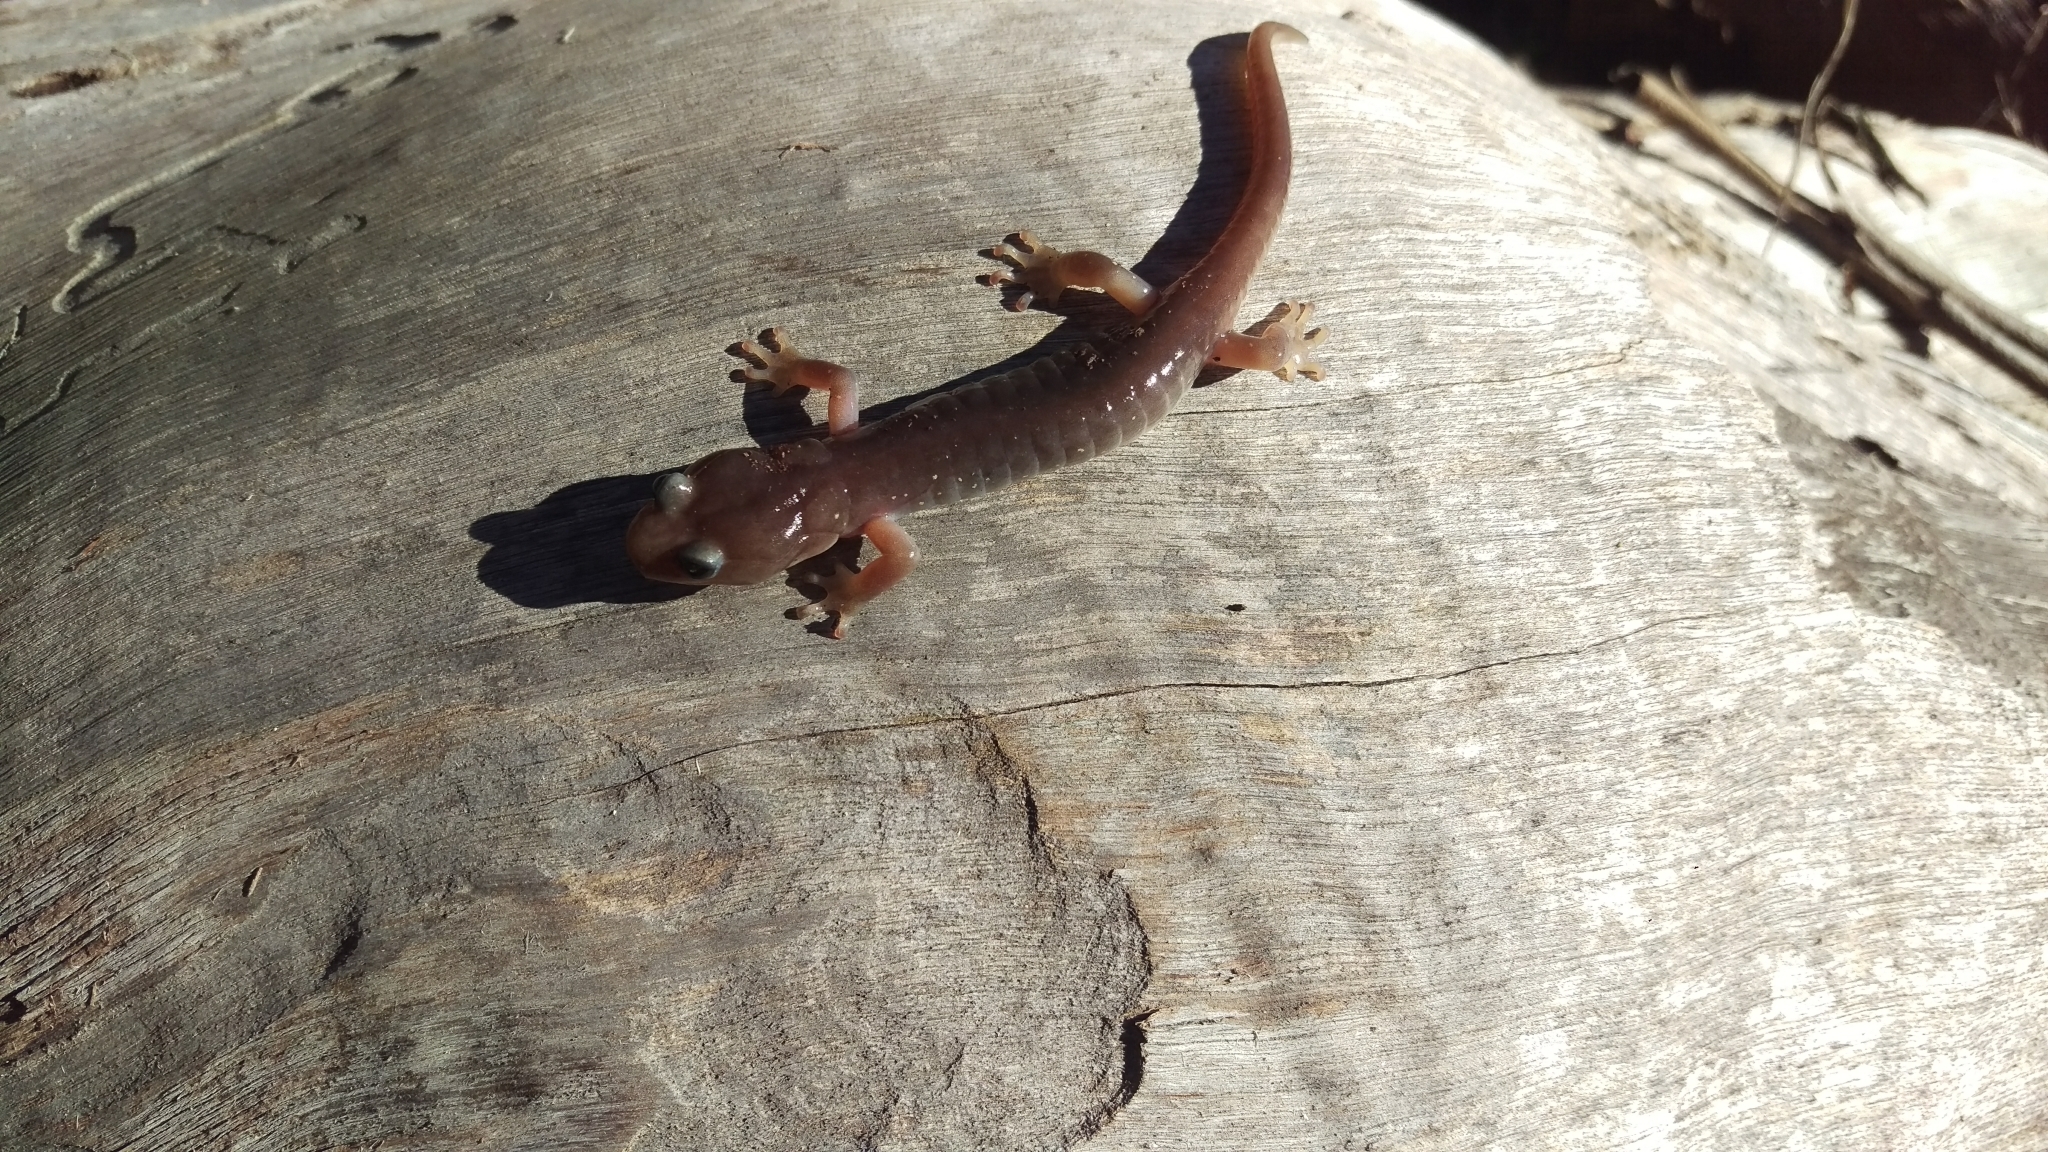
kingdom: Animalia
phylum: Chordata
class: Amphibia
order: Caudata
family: Plethodontidae
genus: Aneides
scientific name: Aneides lugubris
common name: Arboreal salamander
